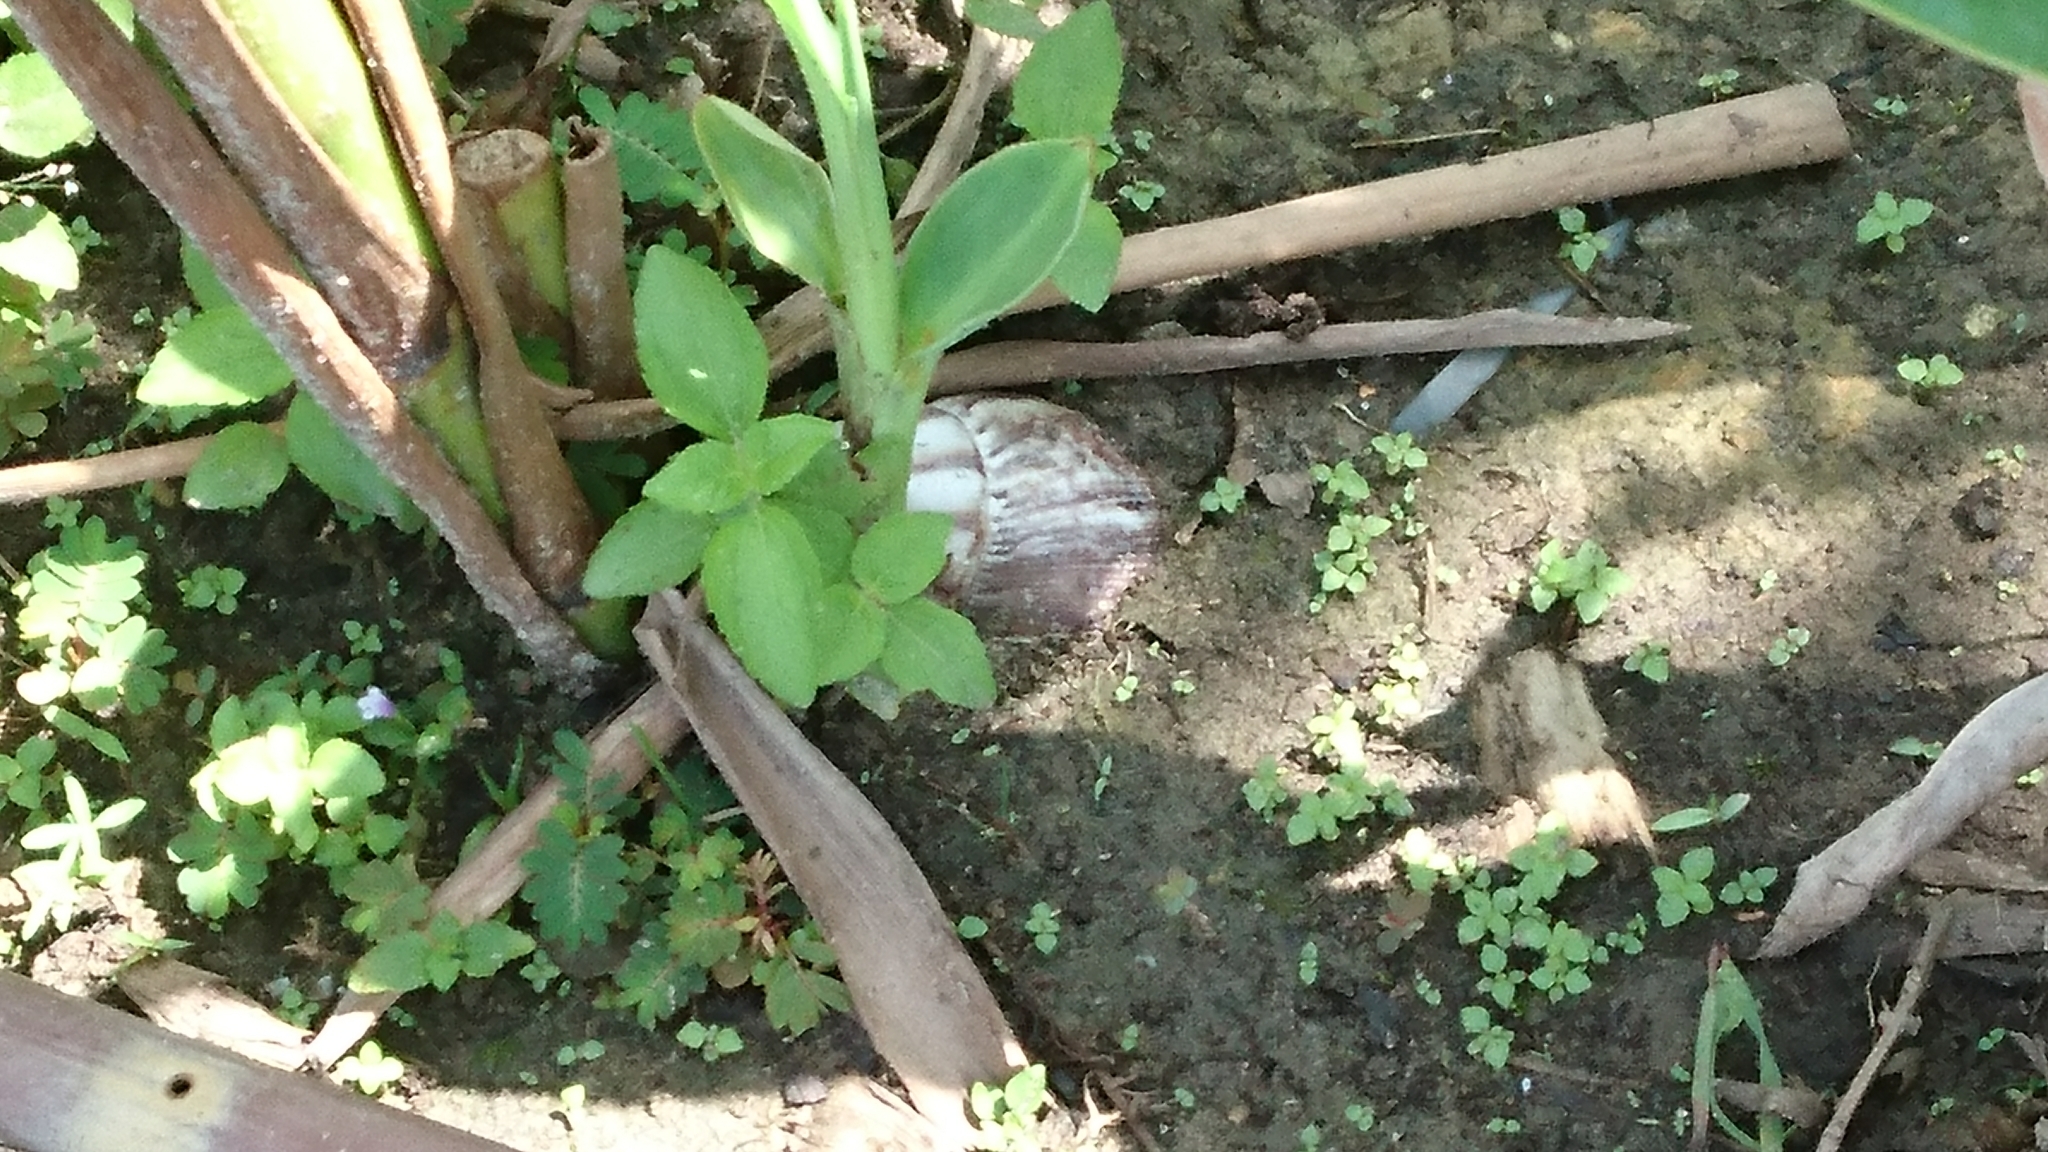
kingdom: Animalia
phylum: Mollusca
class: Gastropoda
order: Stylommatophora
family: Achatinidae
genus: Lissachatina
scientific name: Lissachatina fulica
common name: Giant african snail
